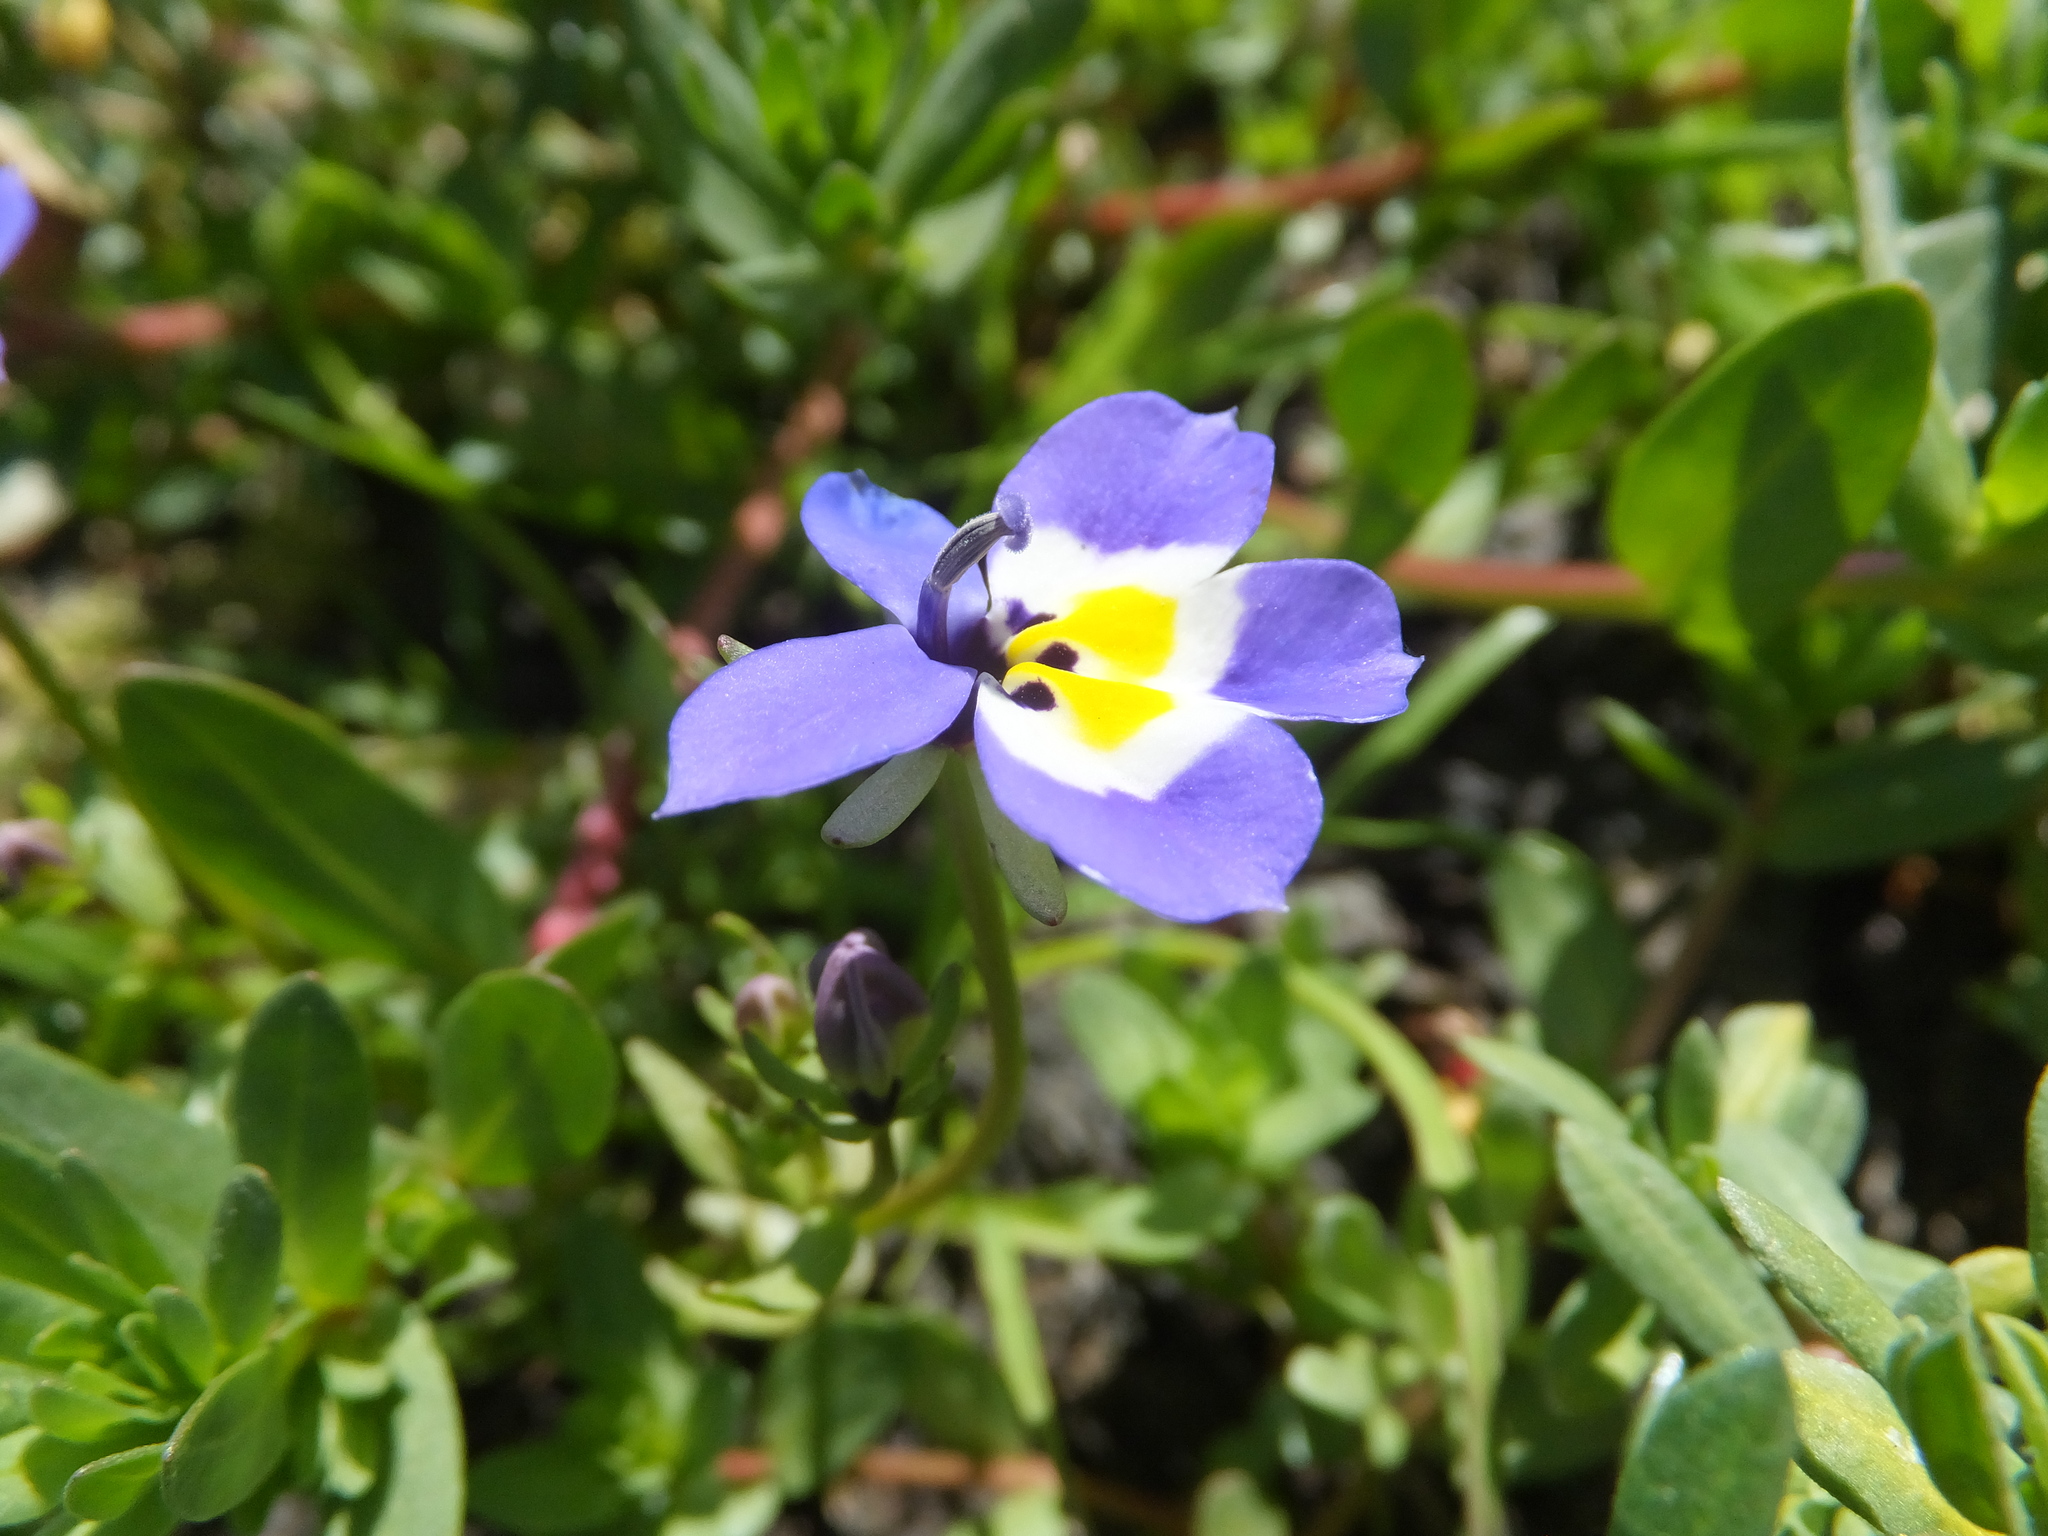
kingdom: Plantae
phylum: Tracheophyta
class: Magnoliopsida
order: Asterales
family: Campanulaceae
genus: Downingia
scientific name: Downingia pulchella
